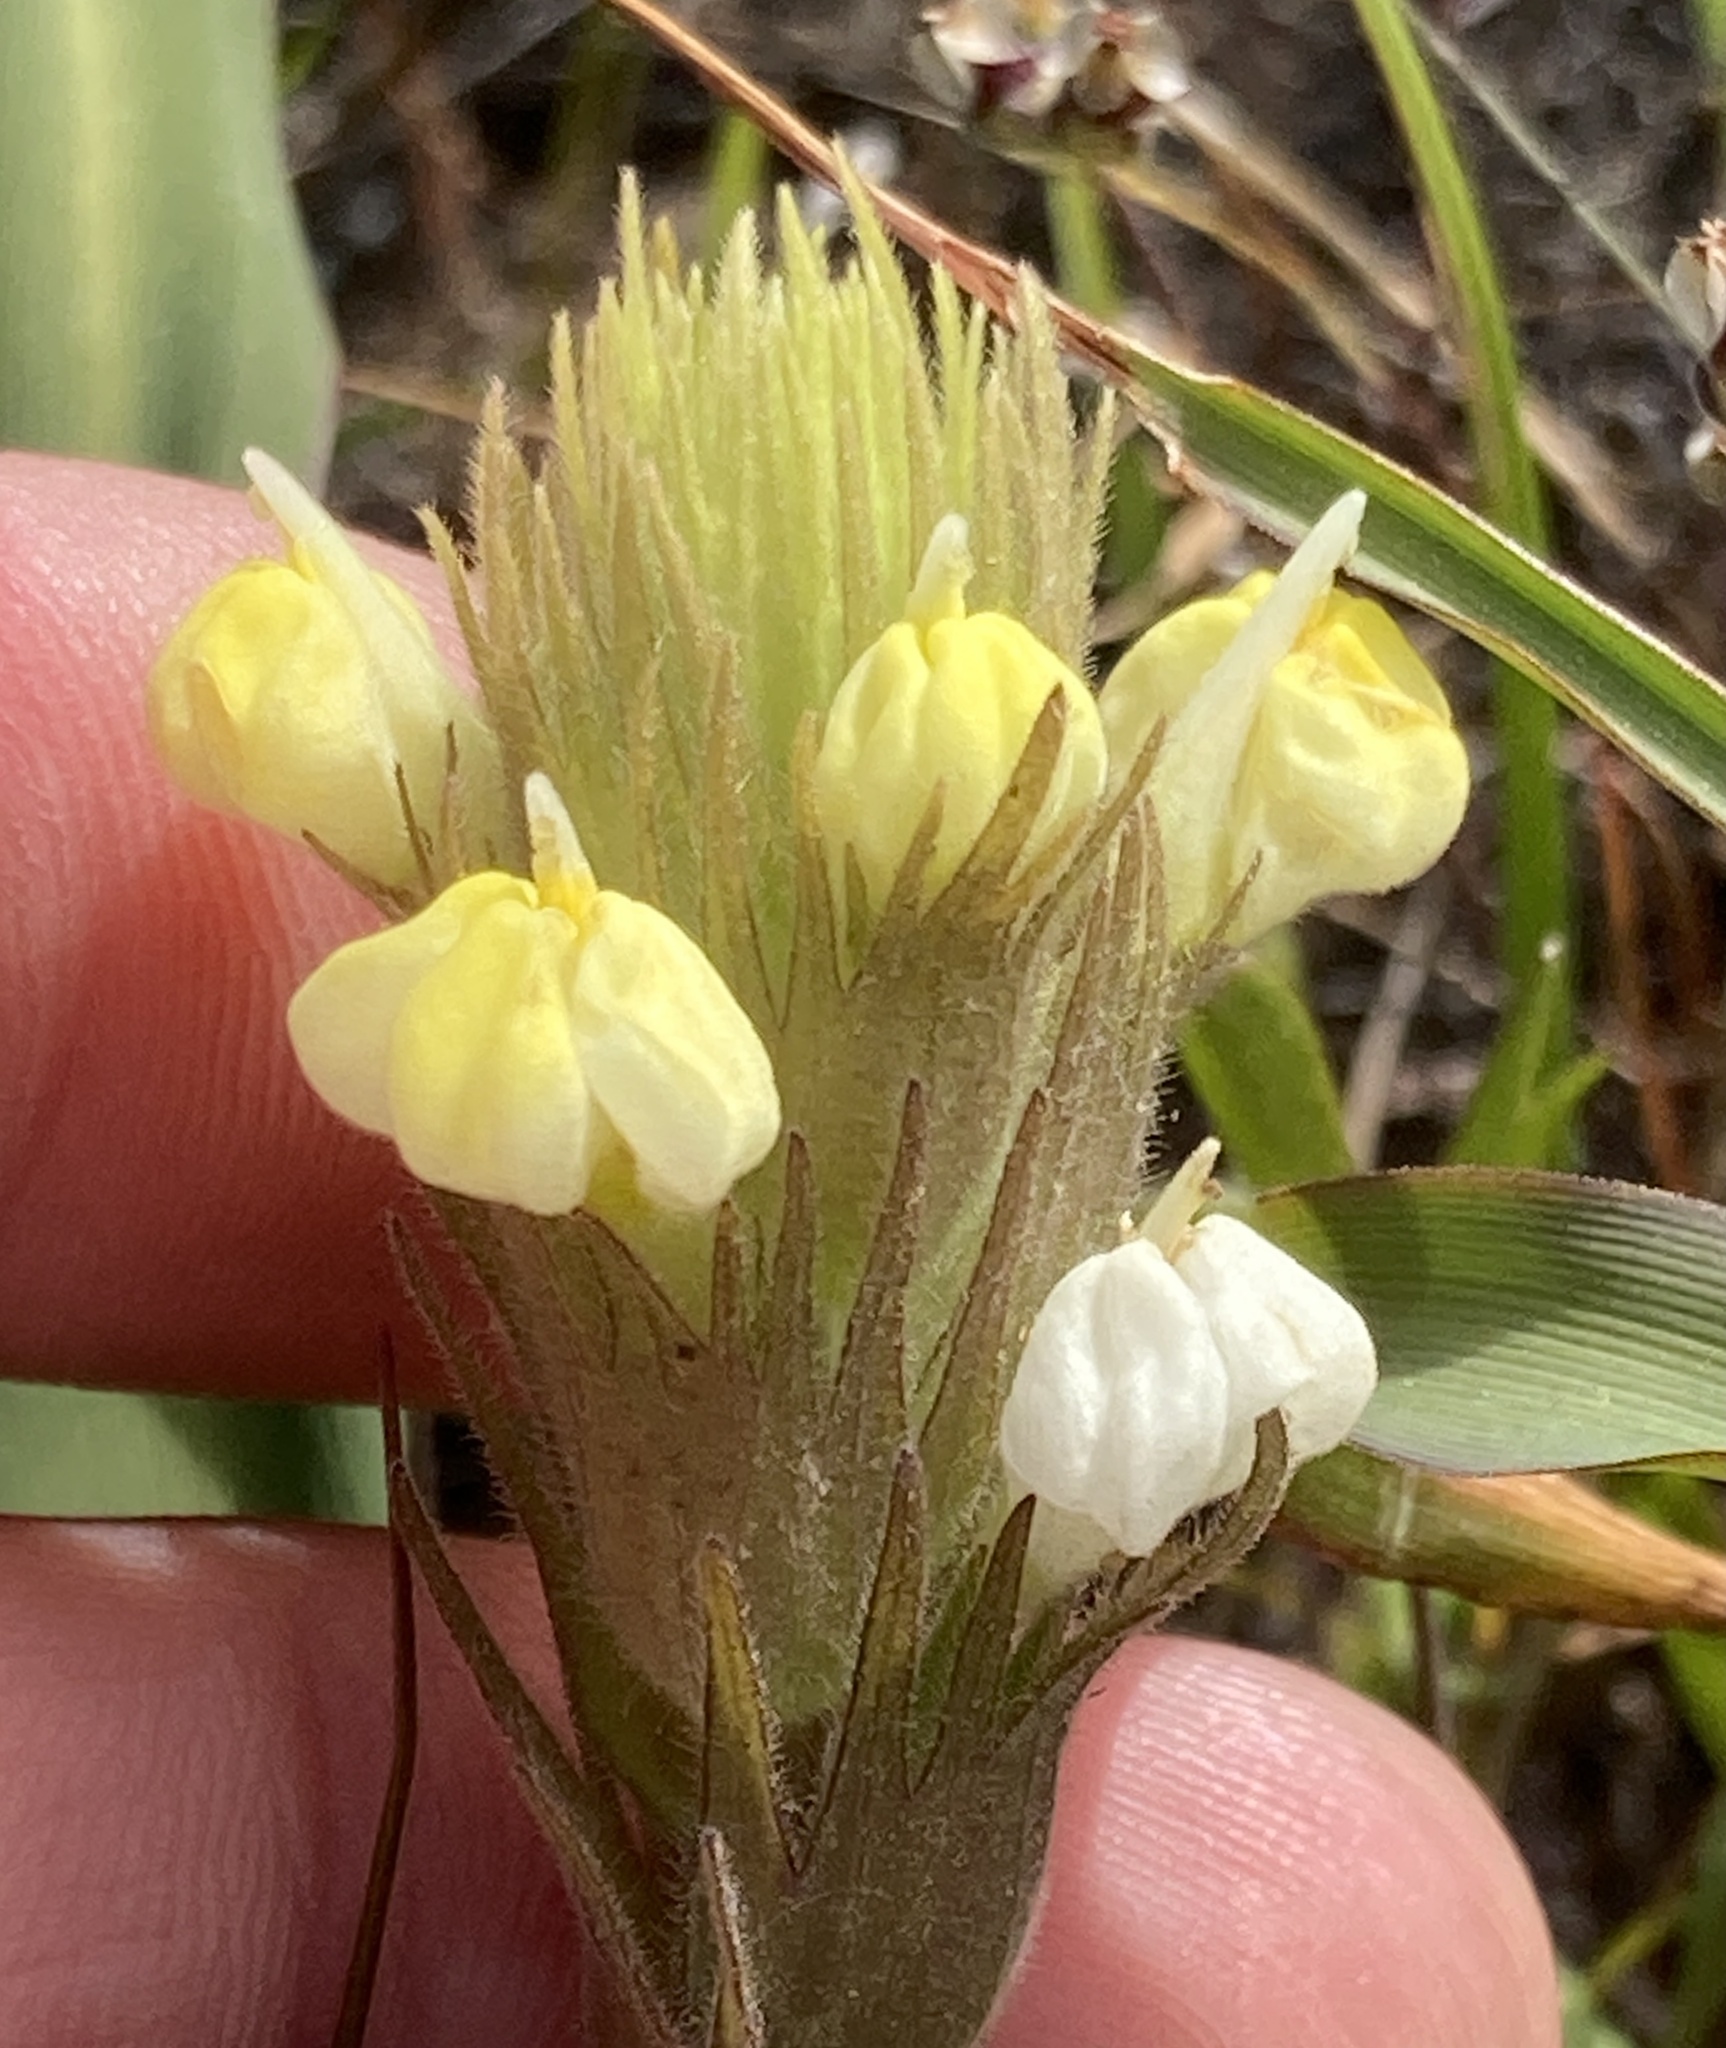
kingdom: Plantae
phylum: Tracheophyta
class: Magnoliopsida
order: Lamiales
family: Orobanchaceae
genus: Castilleja
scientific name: Castilleja rubicundula
